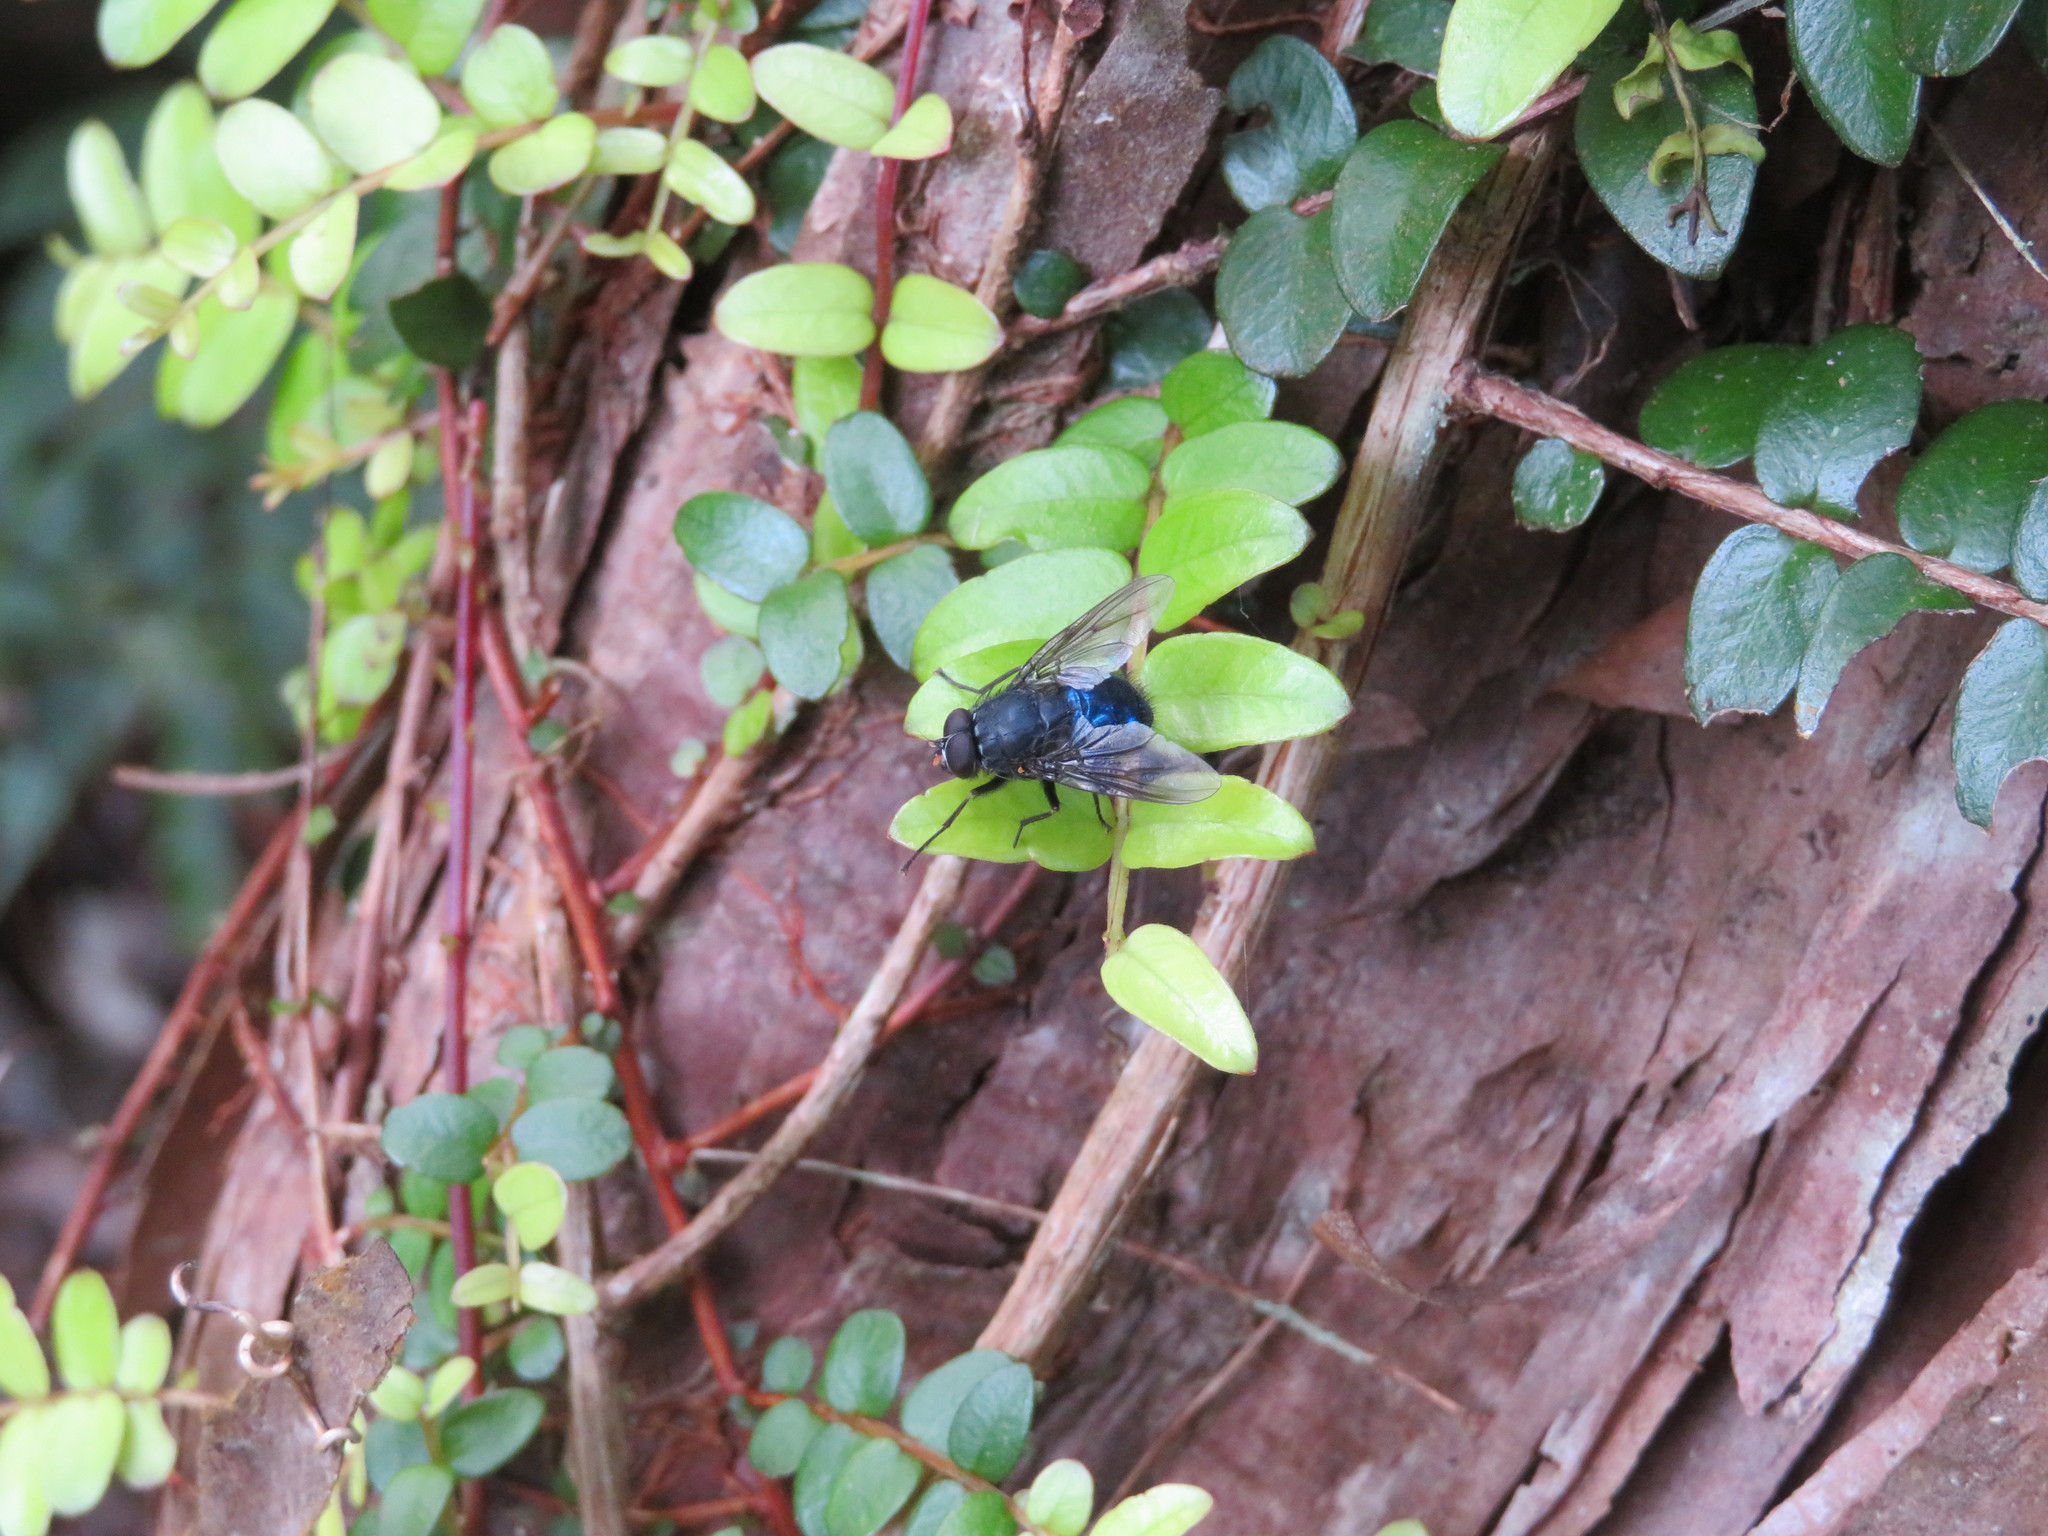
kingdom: Animalia
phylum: Arthropoda
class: Insecta
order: Diptera
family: Muscidae
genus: Calliphoroides
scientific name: Calliphoroides antennatis
